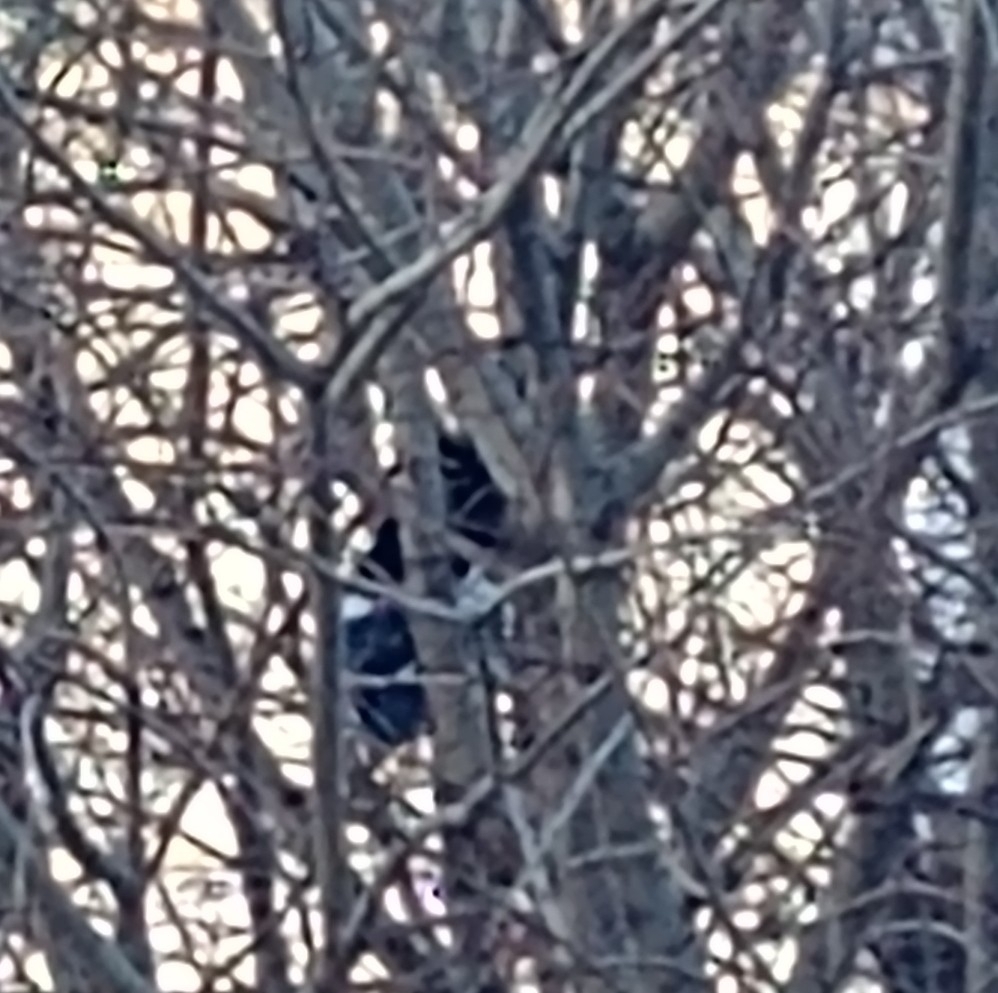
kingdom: Animalia
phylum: Chordata
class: Aves
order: Passeriformes
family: Corvidae
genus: Pica
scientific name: Pica hudsonia
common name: Black-billed magpie
